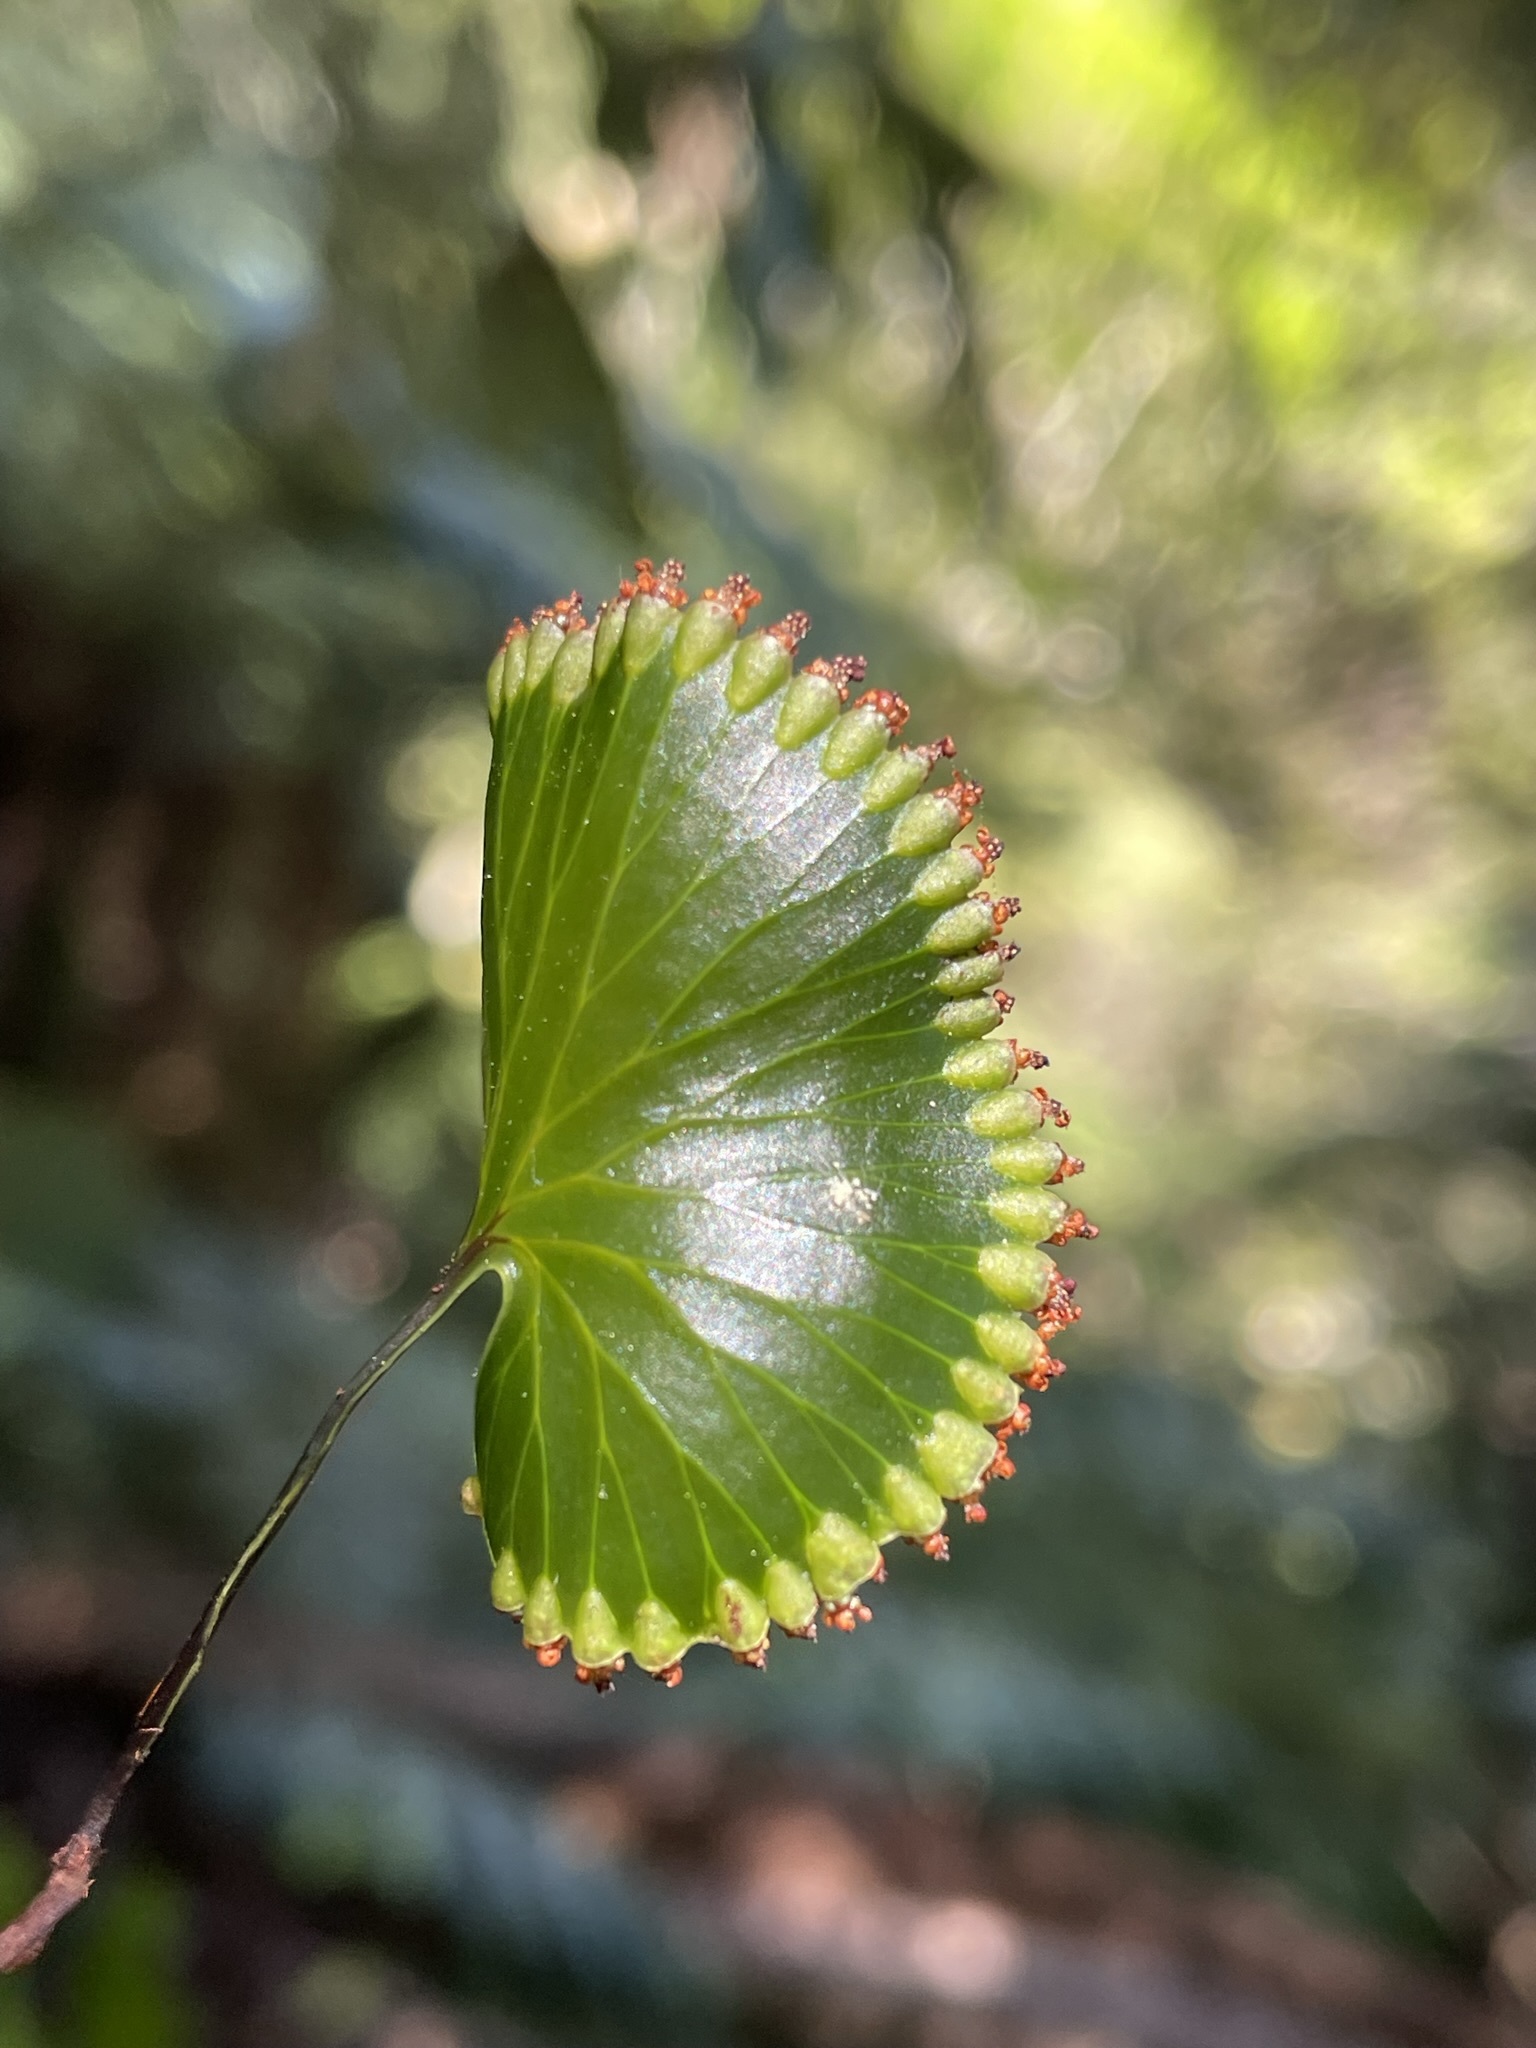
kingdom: Plantae
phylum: Tracheophyta
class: Polypodiopsida
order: Hymenophyllales
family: Hymenophyllaceae
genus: Hymenophyllum
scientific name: Hymenophyllum nephrophyllum
